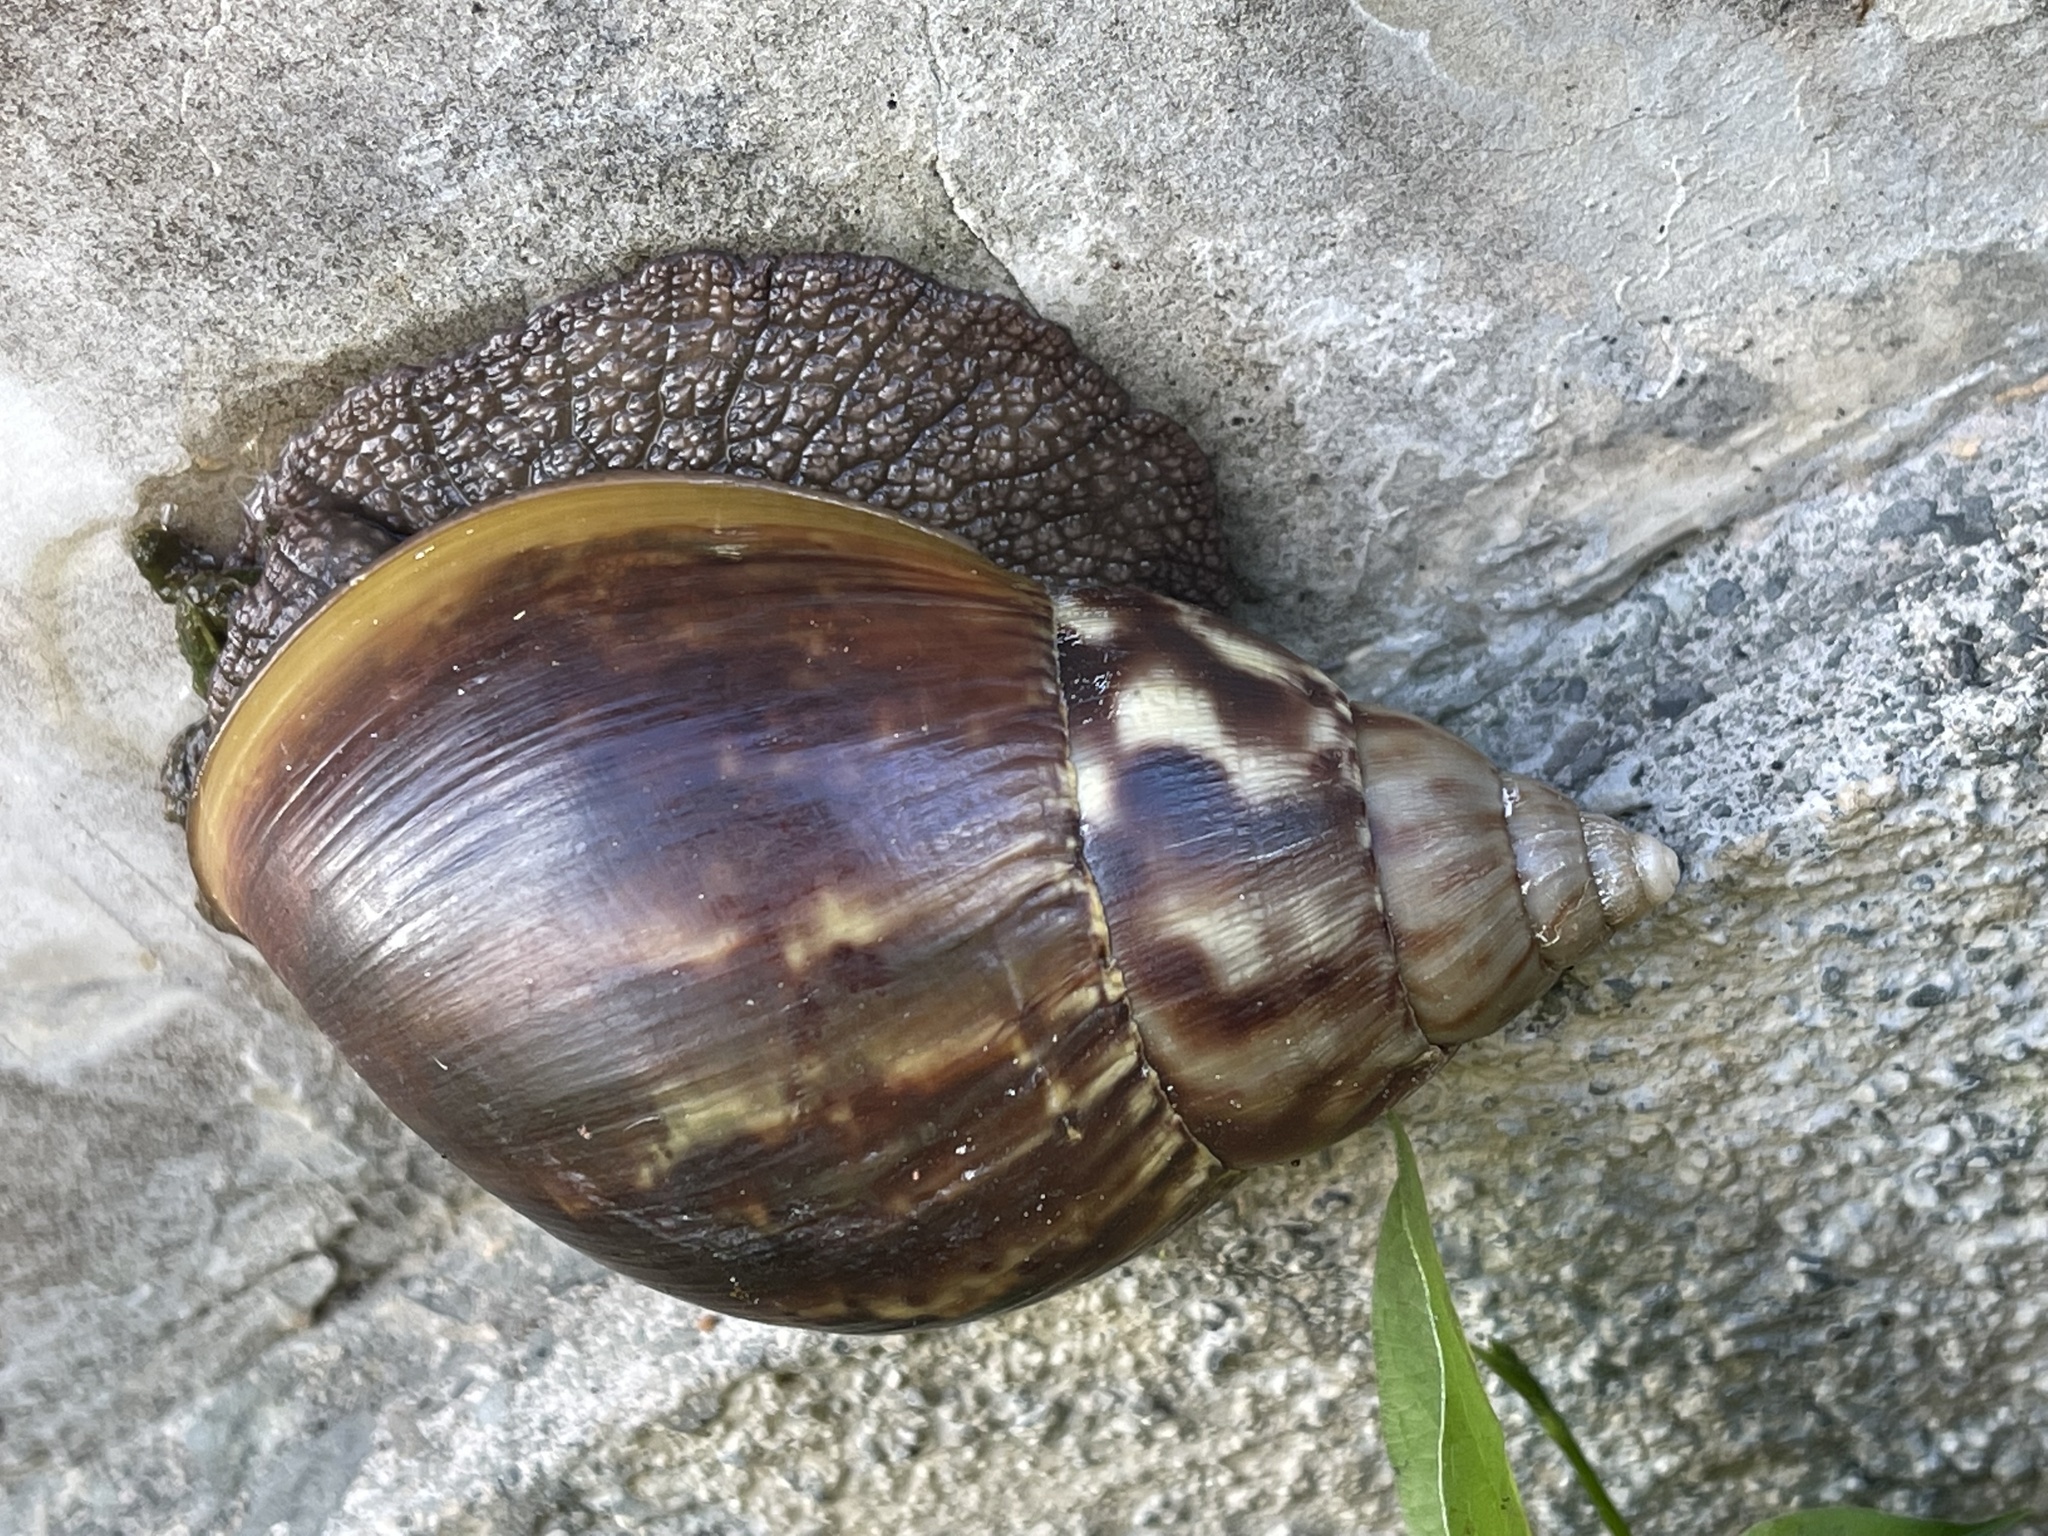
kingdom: Animalia
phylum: Mollusca
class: Gastropoda
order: Stylommatophora
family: Achatinidae
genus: Lissachatina
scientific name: Lissachatina fulica
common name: Giant african snail
